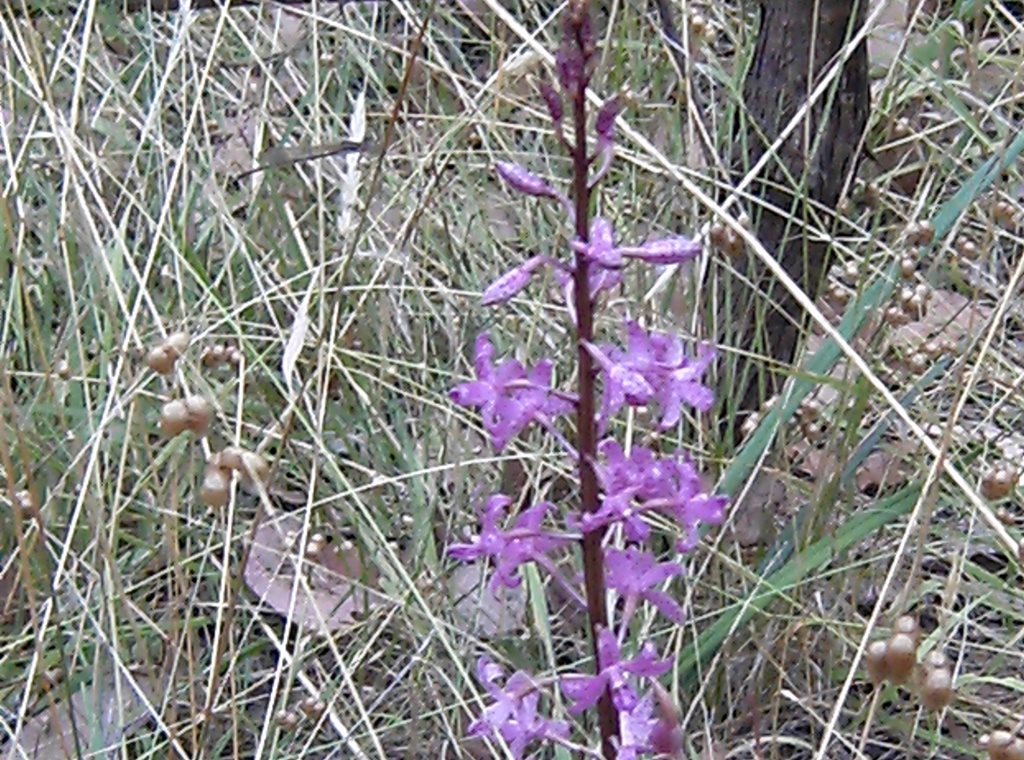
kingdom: Plantae
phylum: Tracheophyta
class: Liliopsida
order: Asparagales
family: Orchidaceae
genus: Dipodium
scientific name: Dipodium roseum
